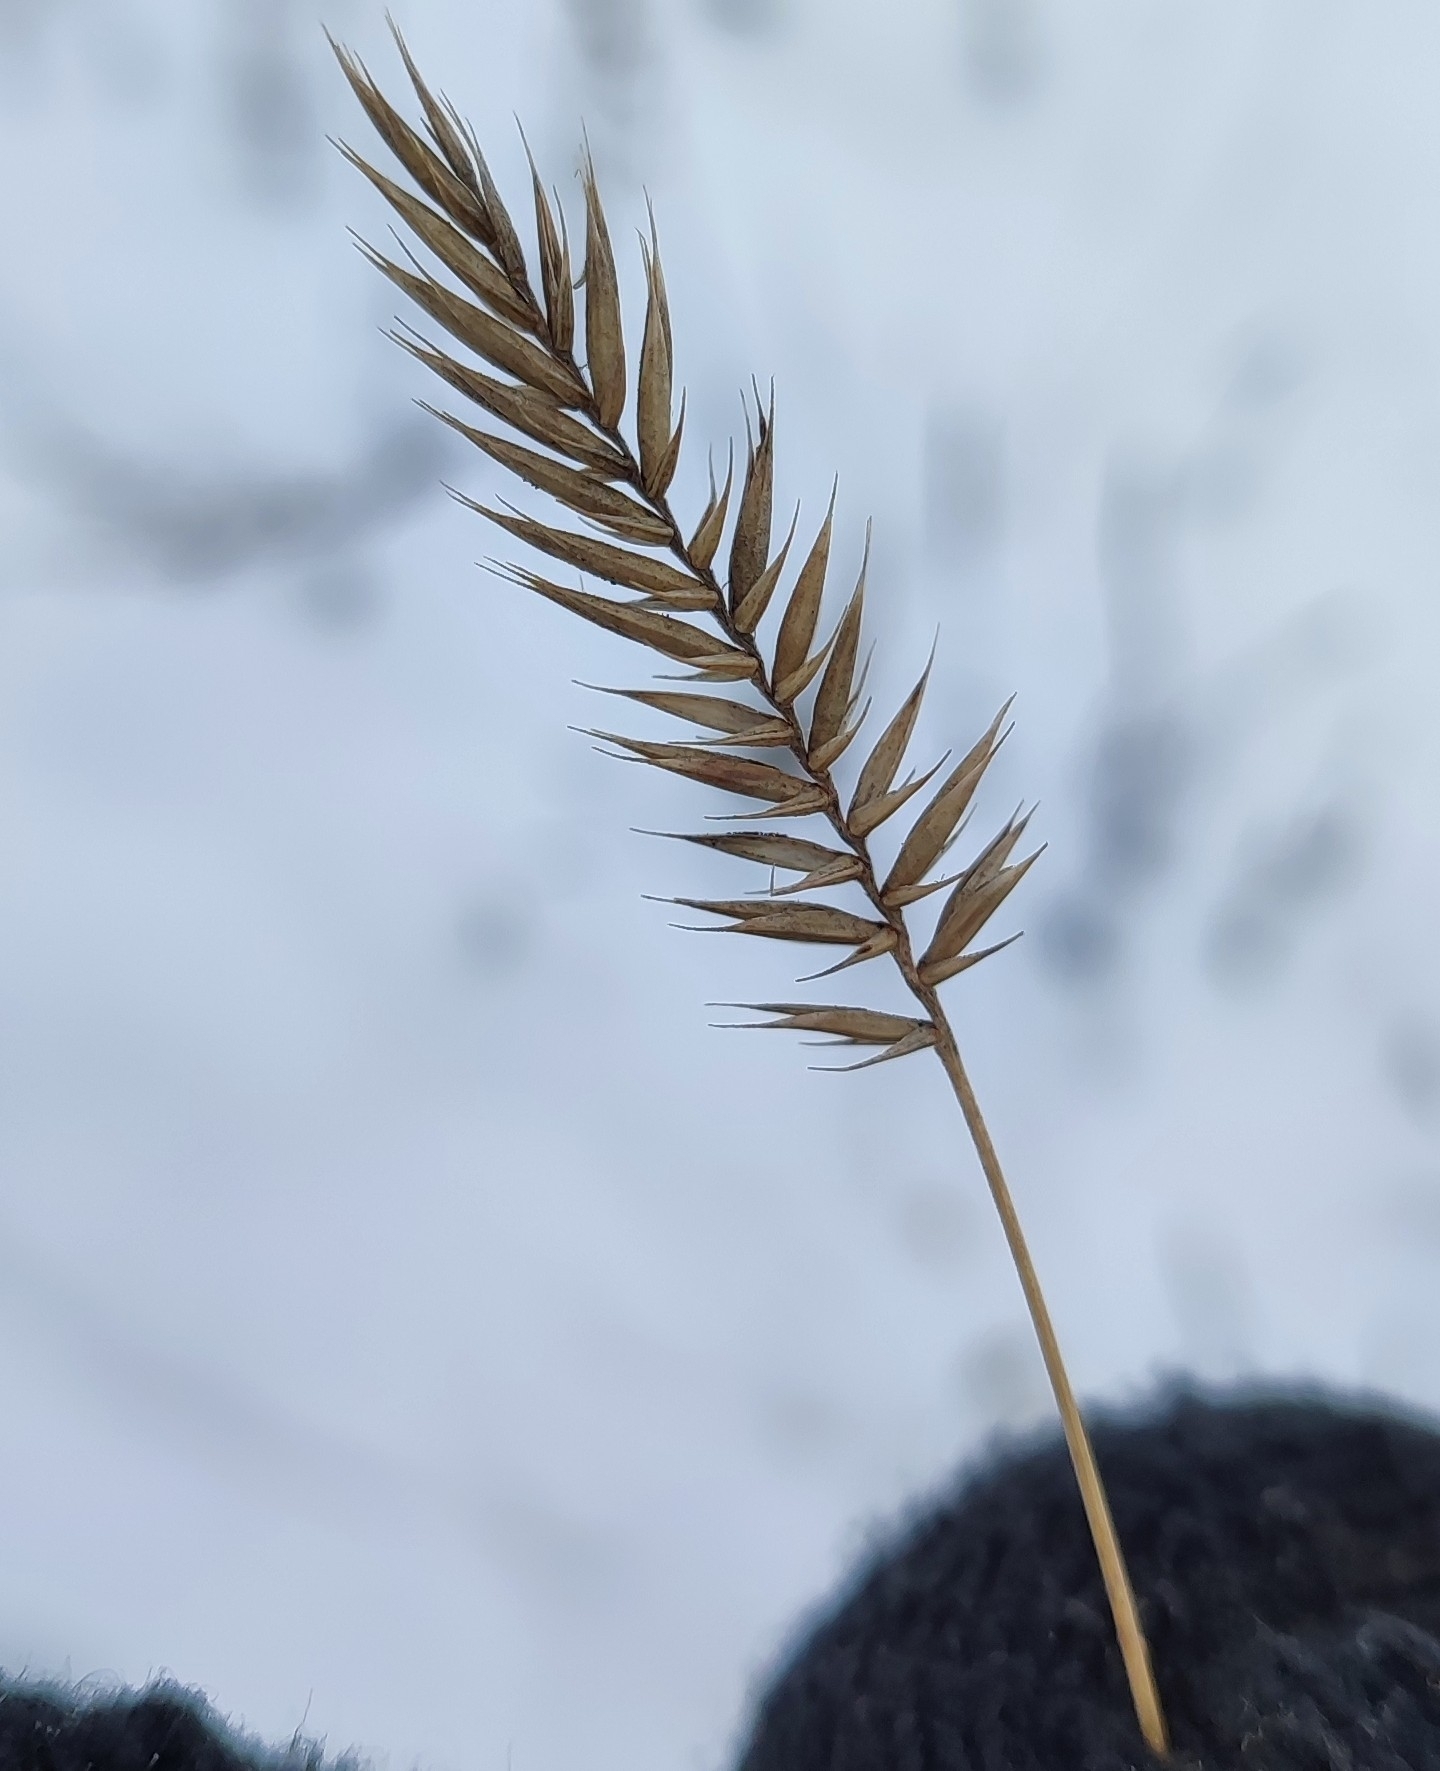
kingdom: Plantae
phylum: Tracheophyta
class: Liliopsida
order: Poales
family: Poaceae
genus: Agropyron
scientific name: Agropyron cristatum
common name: Crested wheatgrass
